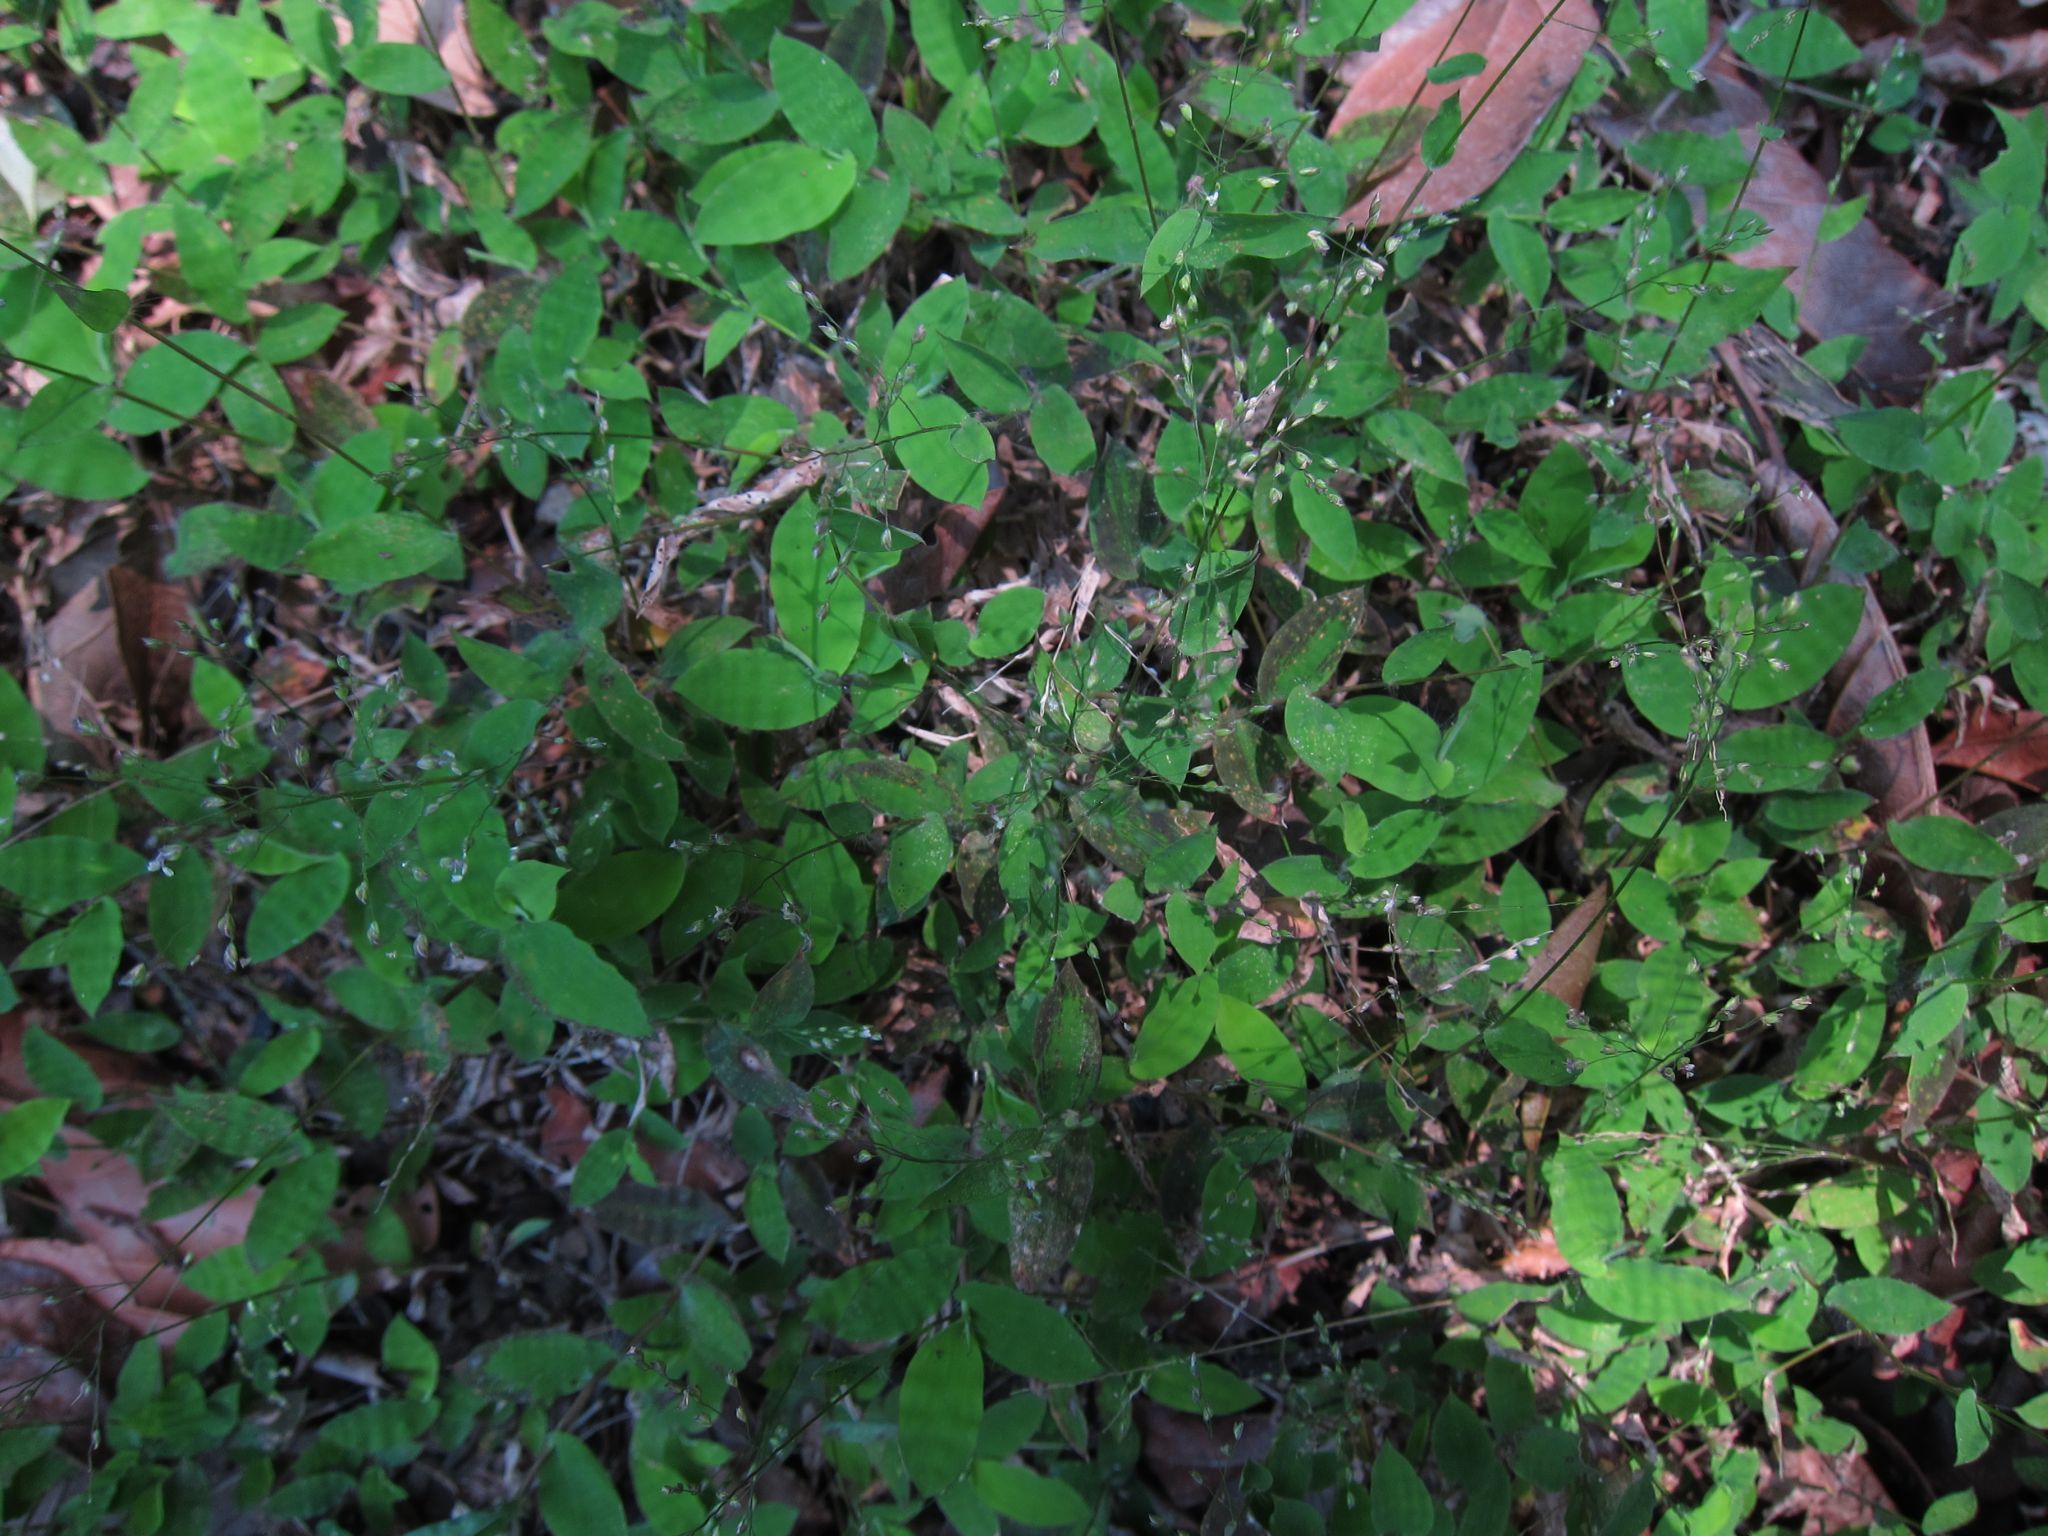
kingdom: Plantae
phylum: Tracheophyta
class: Liliopsida
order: Poales
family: Poaceae
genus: Cyrtococcum
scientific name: Cyrtococcum deltoideum
